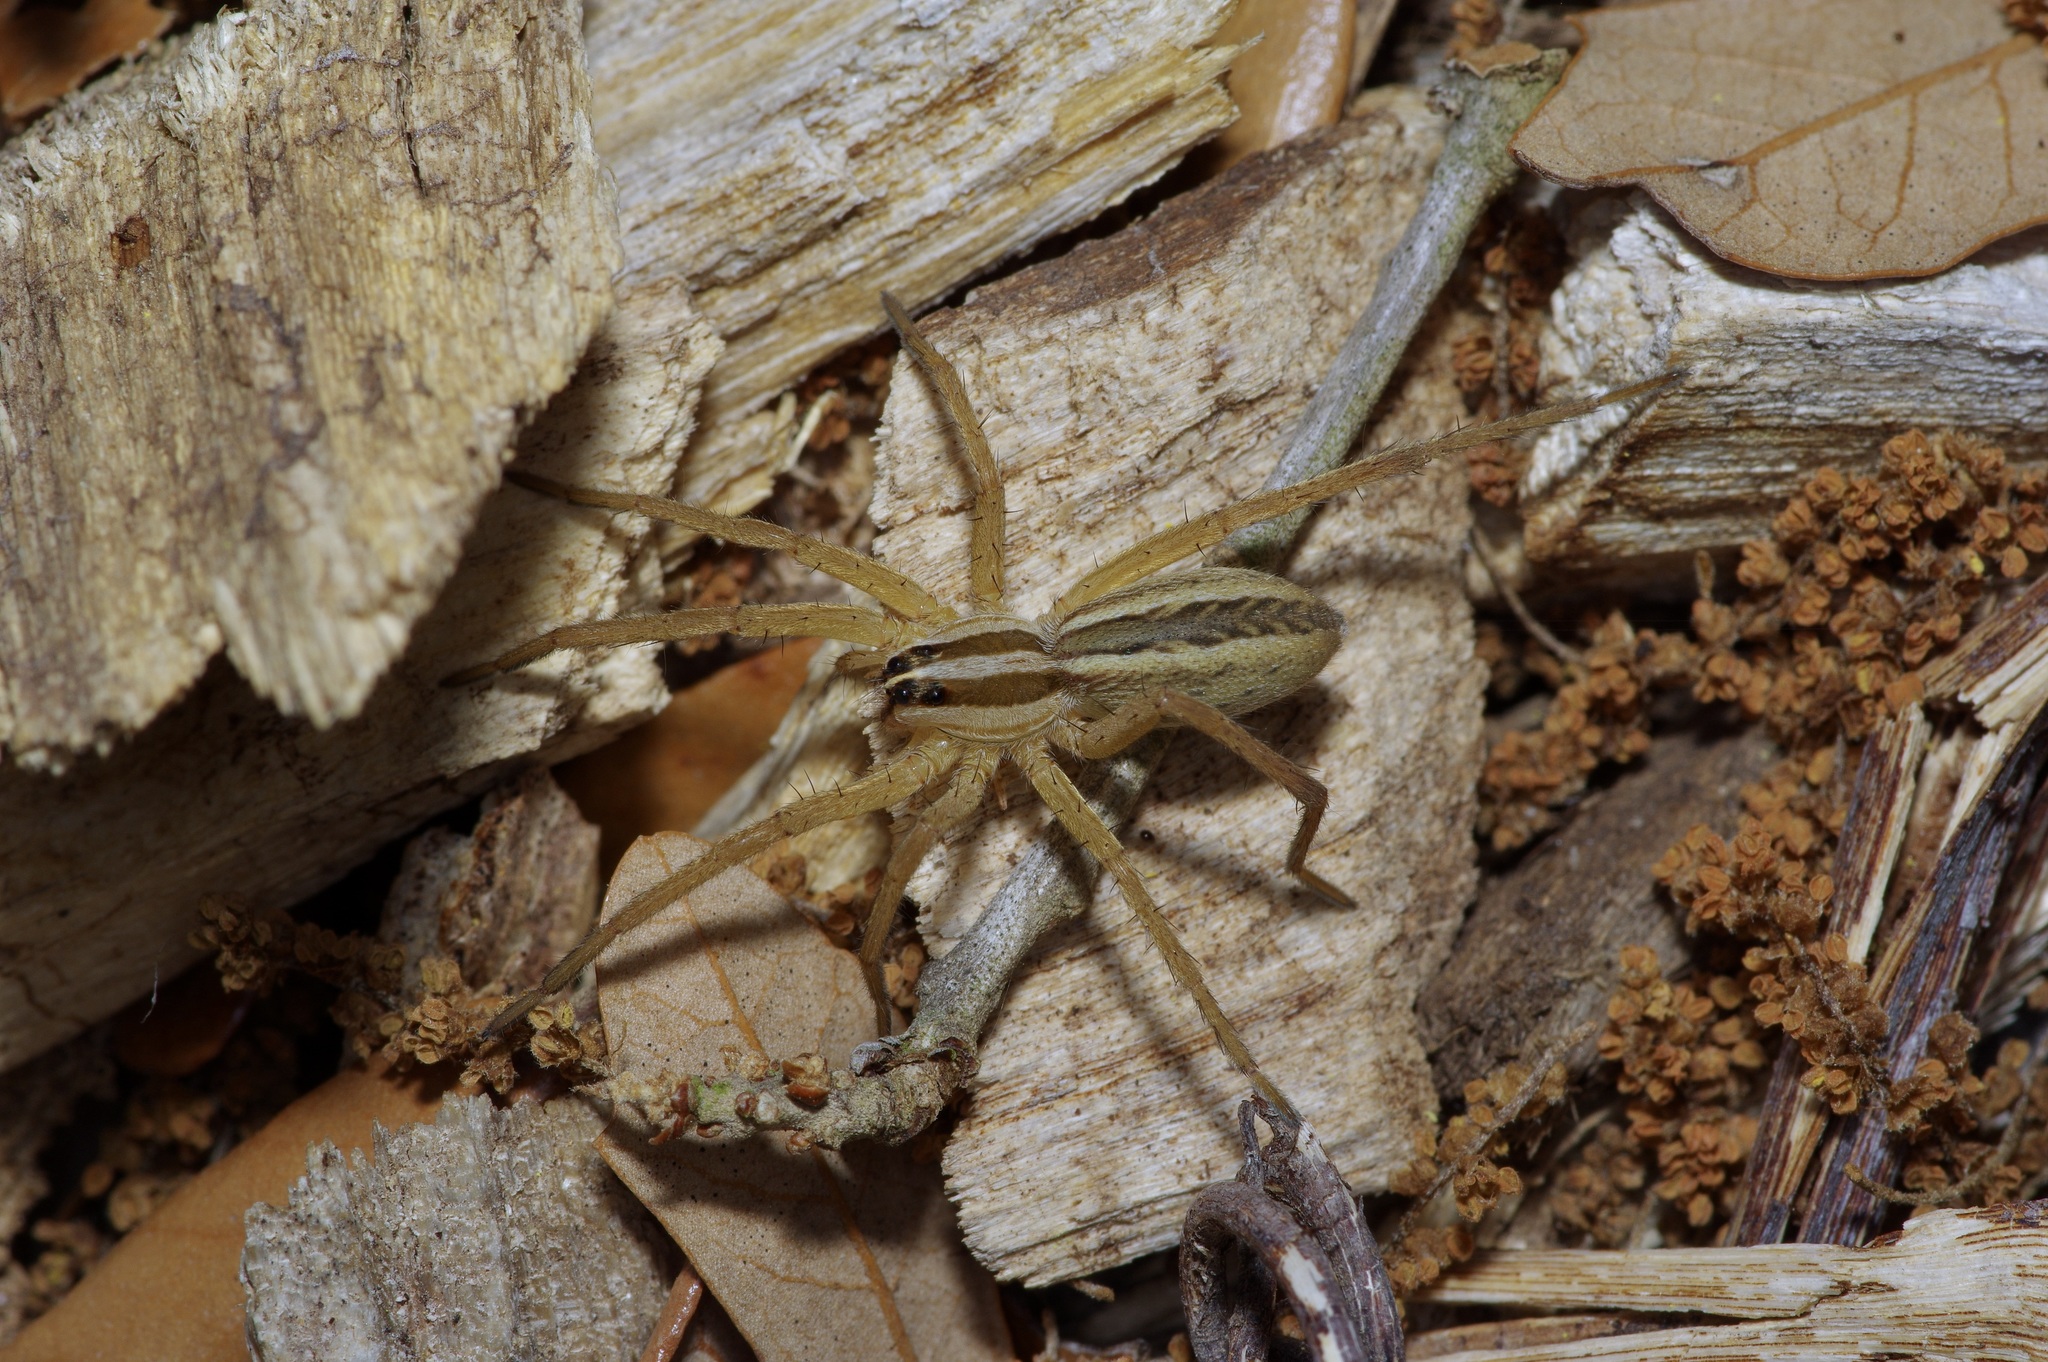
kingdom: Animalia
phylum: Arthropoda
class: Arachnida
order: Araneae
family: Lycosidae
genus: Rabidosa
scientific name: Rabidosa rabida
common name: Rabid wolf spider
